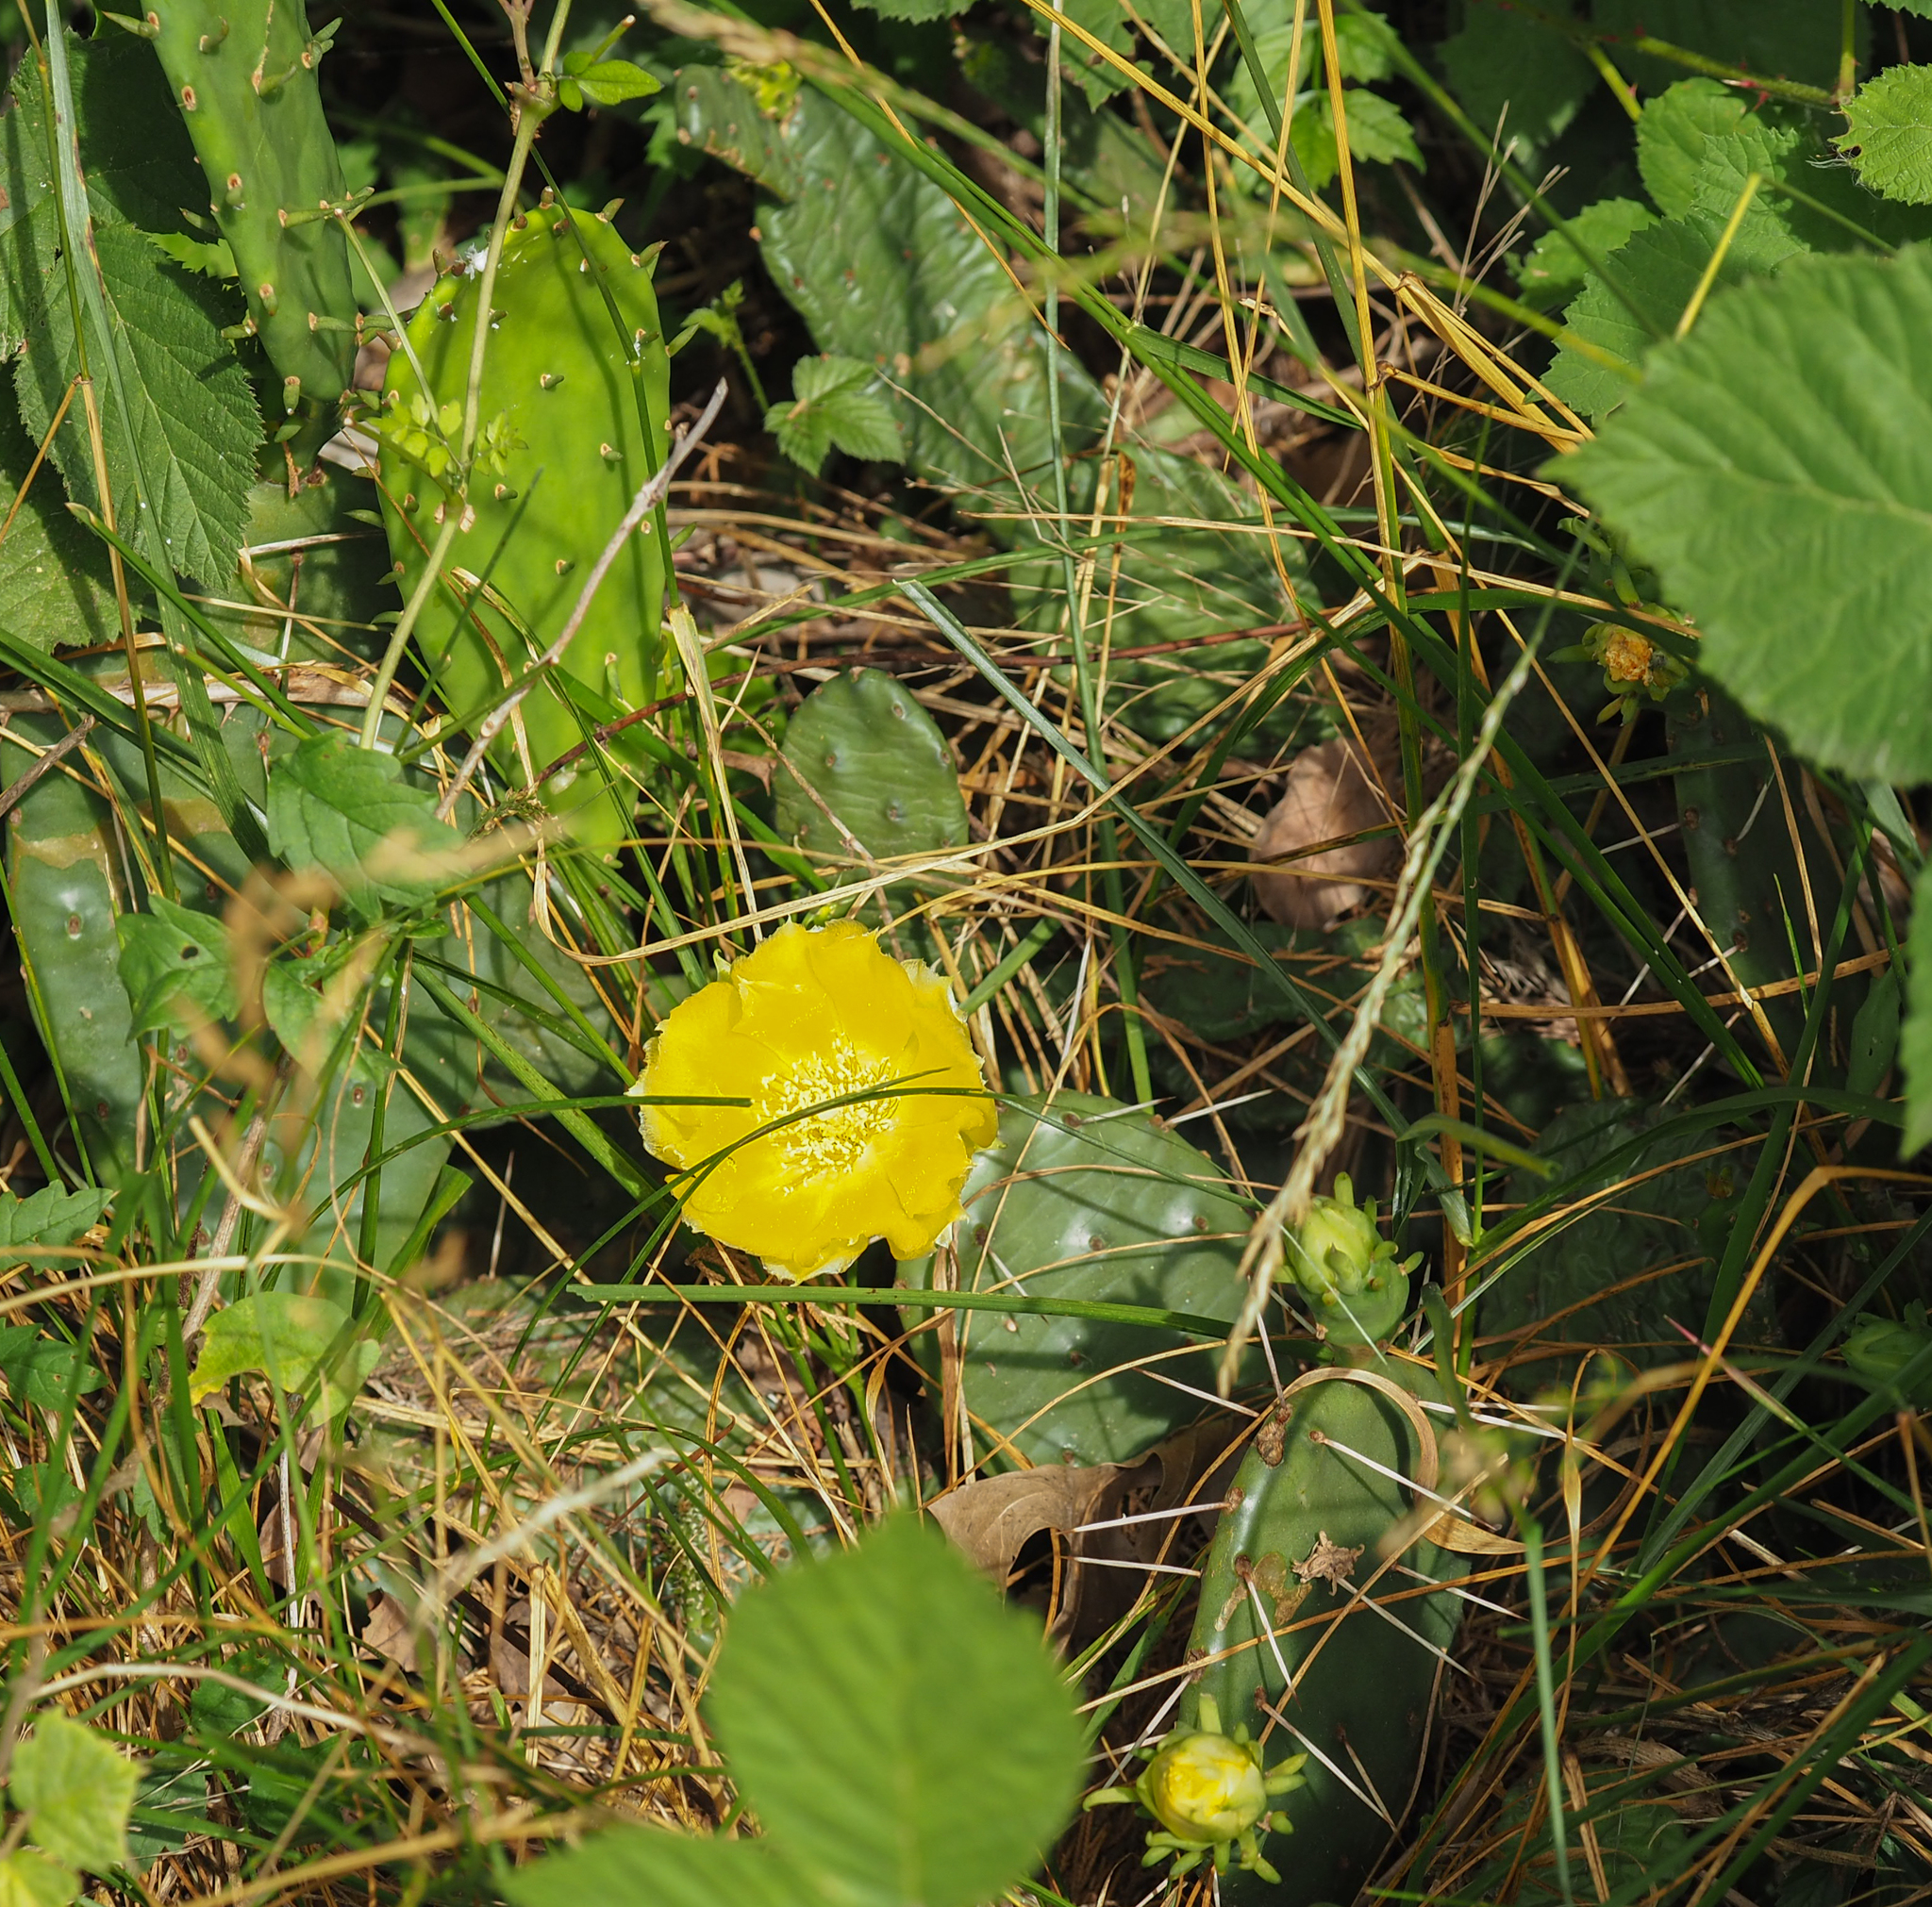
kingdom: Plantae
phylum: Tracheophyta
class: Magnoliopsida
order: Caryophyllales
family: Cactaceae
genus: Opuntia
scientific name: Opuntia mesacantha
